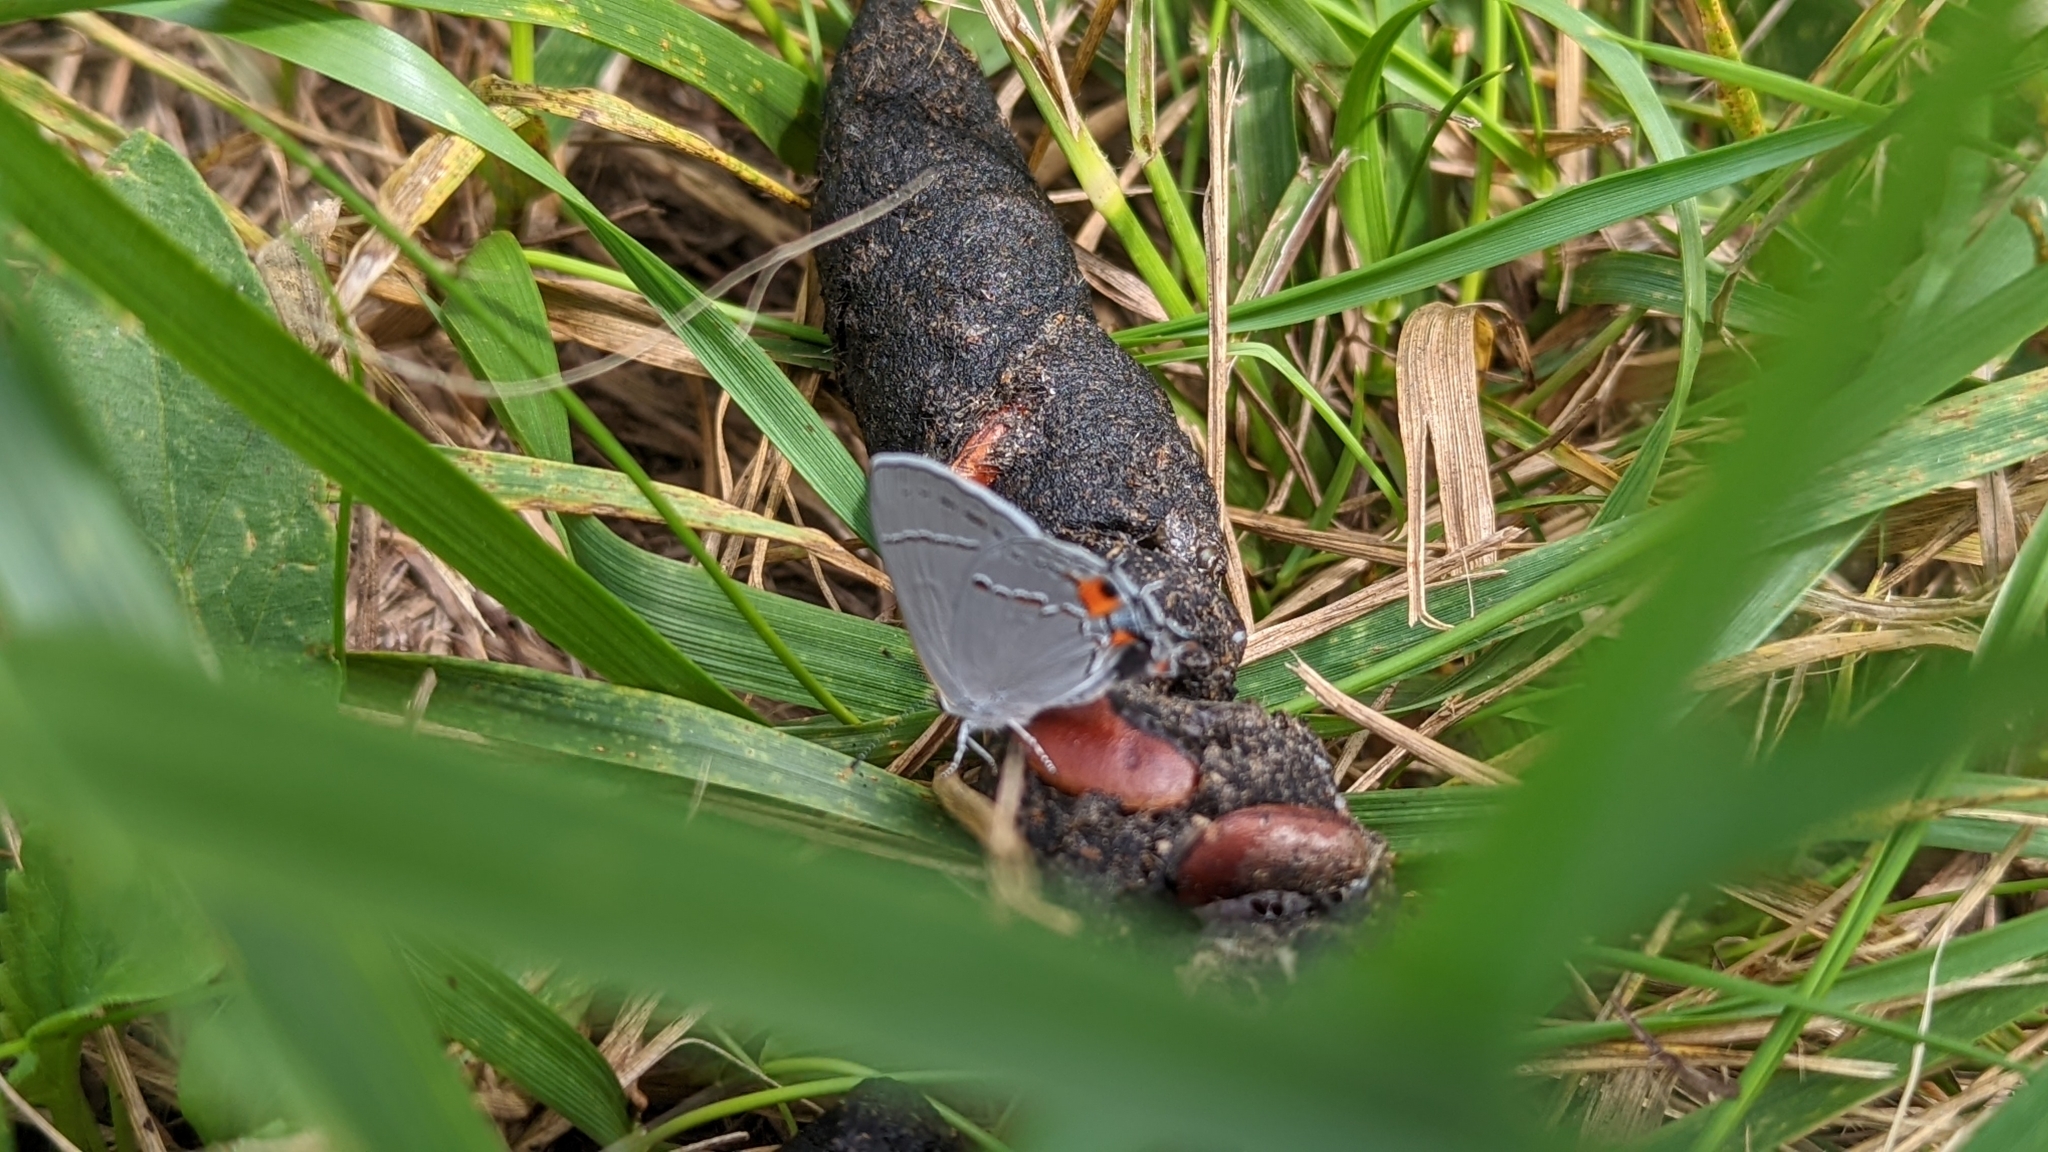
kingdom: Animalia
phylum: Arthropoda
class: Insecta
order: Lepidoptera
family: Lycaenidae
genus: Strymon
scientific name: Strymon melinus
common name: Gray hairstreak
